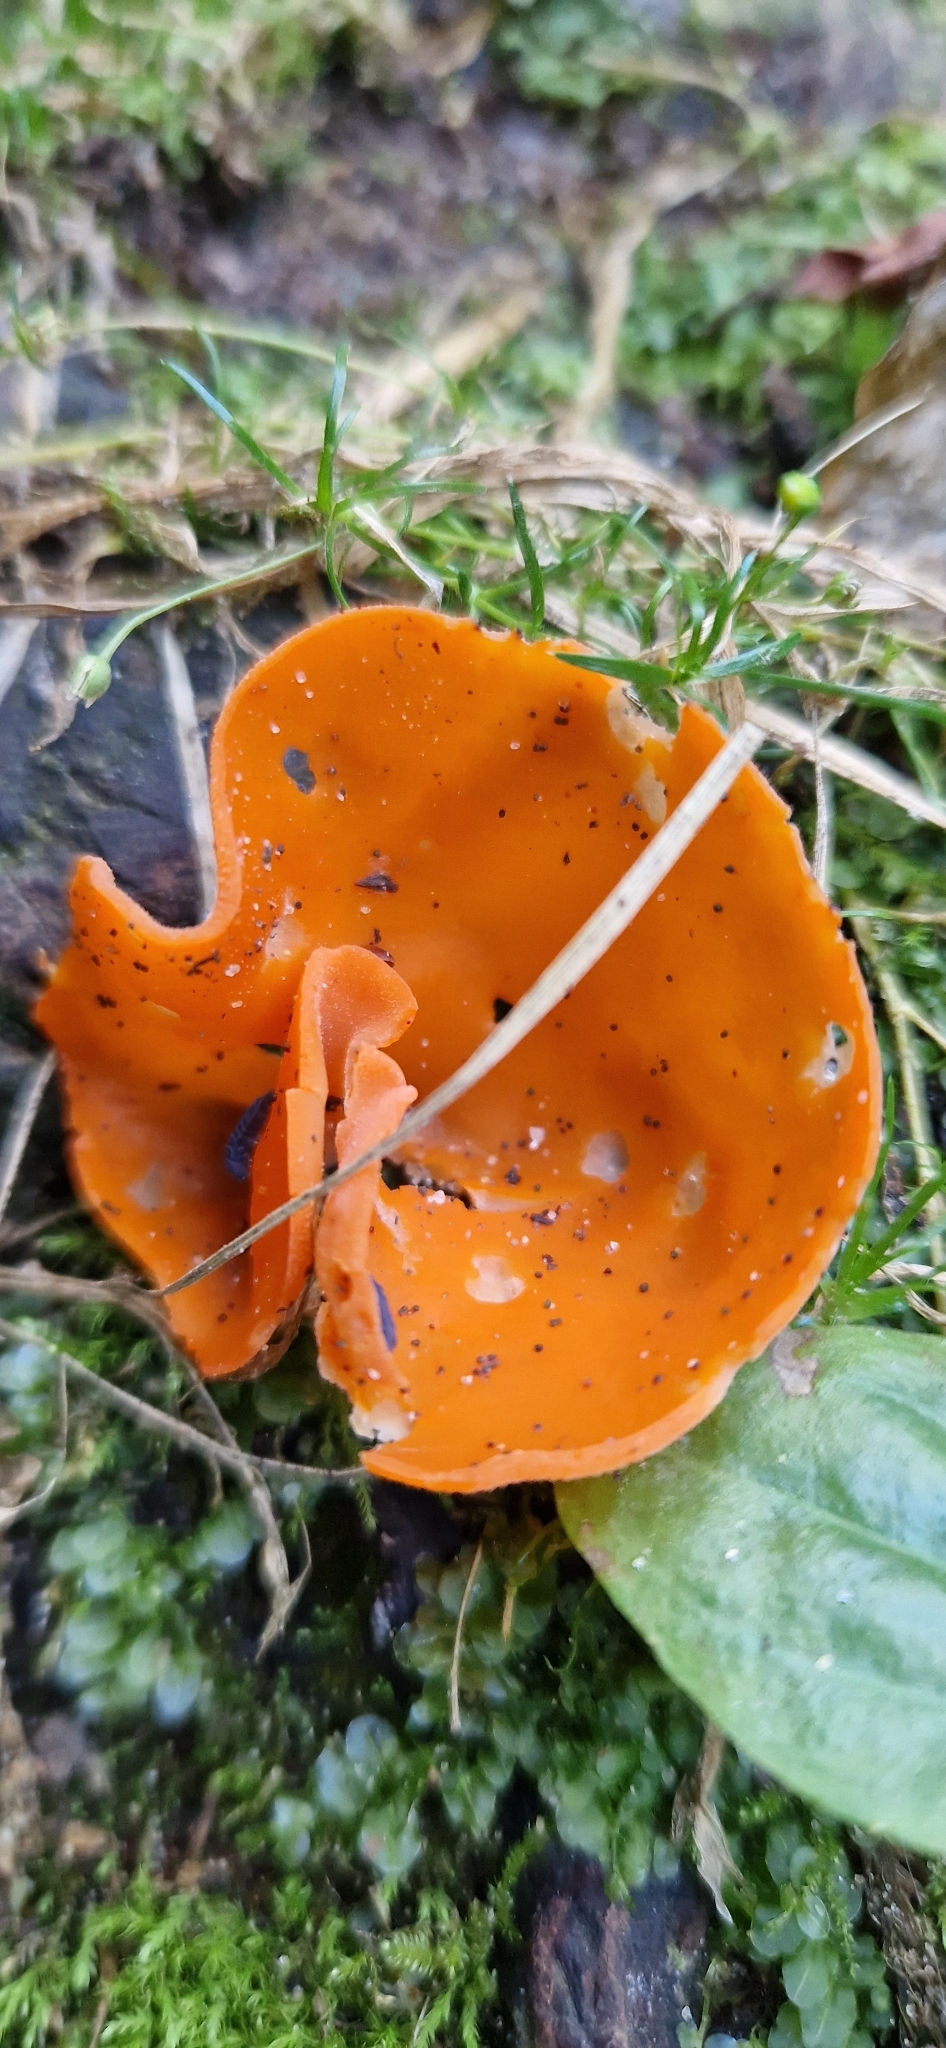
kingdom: Fungi
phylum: Ascomycota
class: Pezizomycetes
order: Pezizales
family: Pyronemataceae
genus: Aleuria
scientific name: Aleuria aurantia
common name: Orange peel fungus
